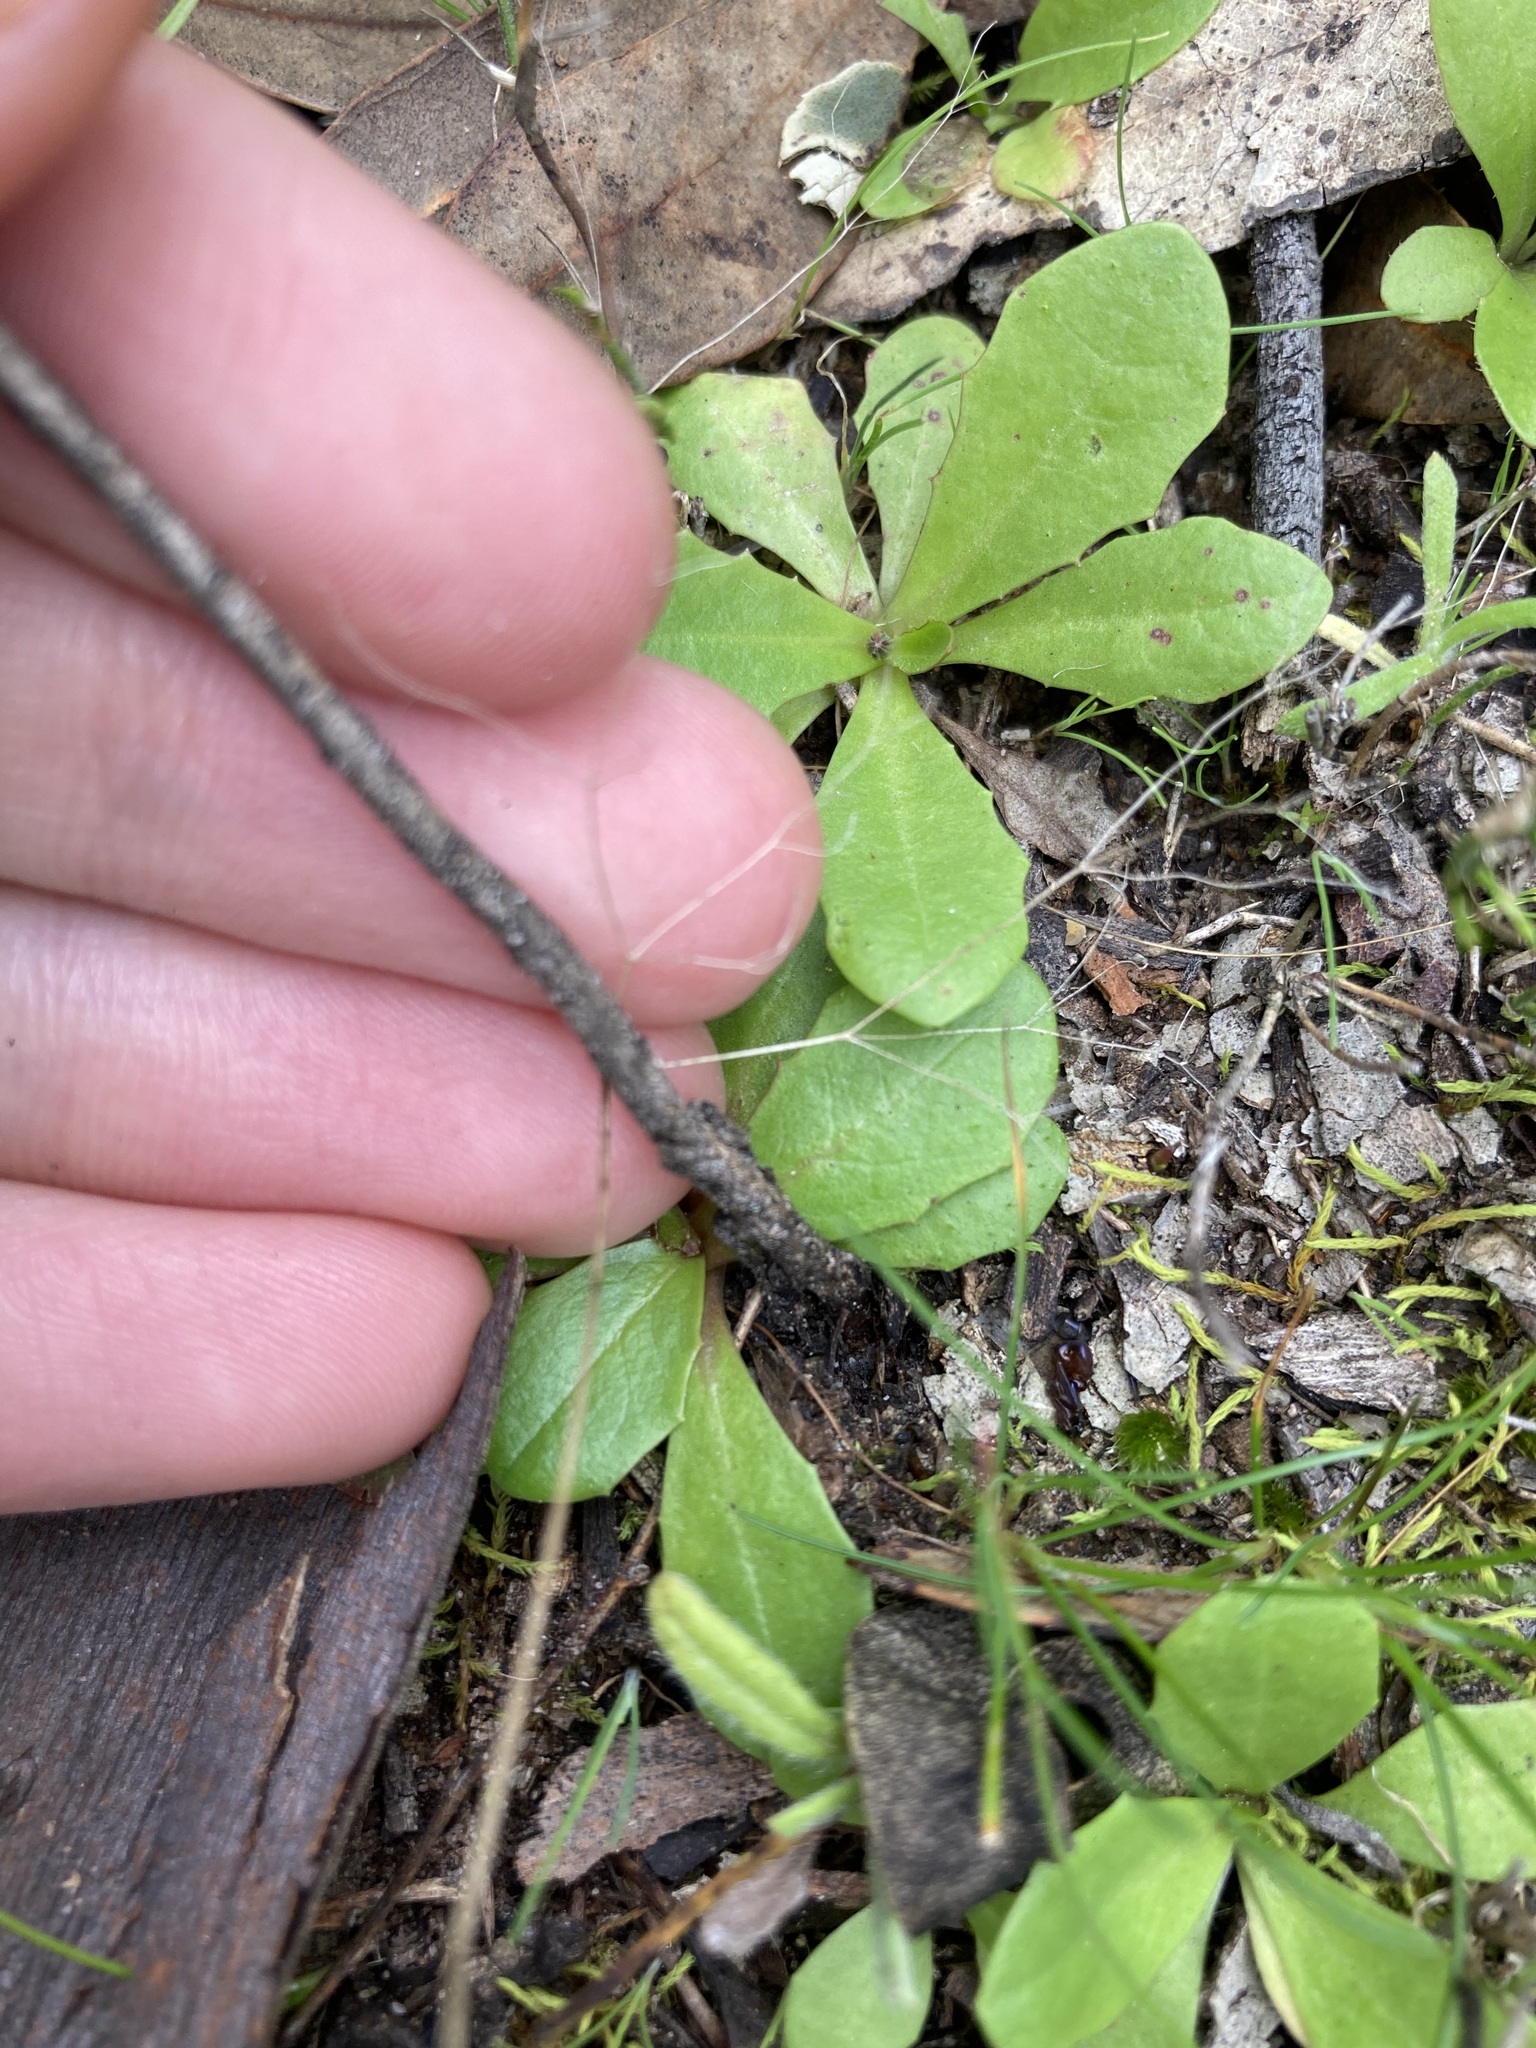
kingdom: Plantae
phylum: Tracheophyta
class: Magnoliopsida
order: Lamiales
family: Orobanchaceae
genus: Bellardia
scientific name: Bellardia trixago
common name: Mediterranean lineseed
